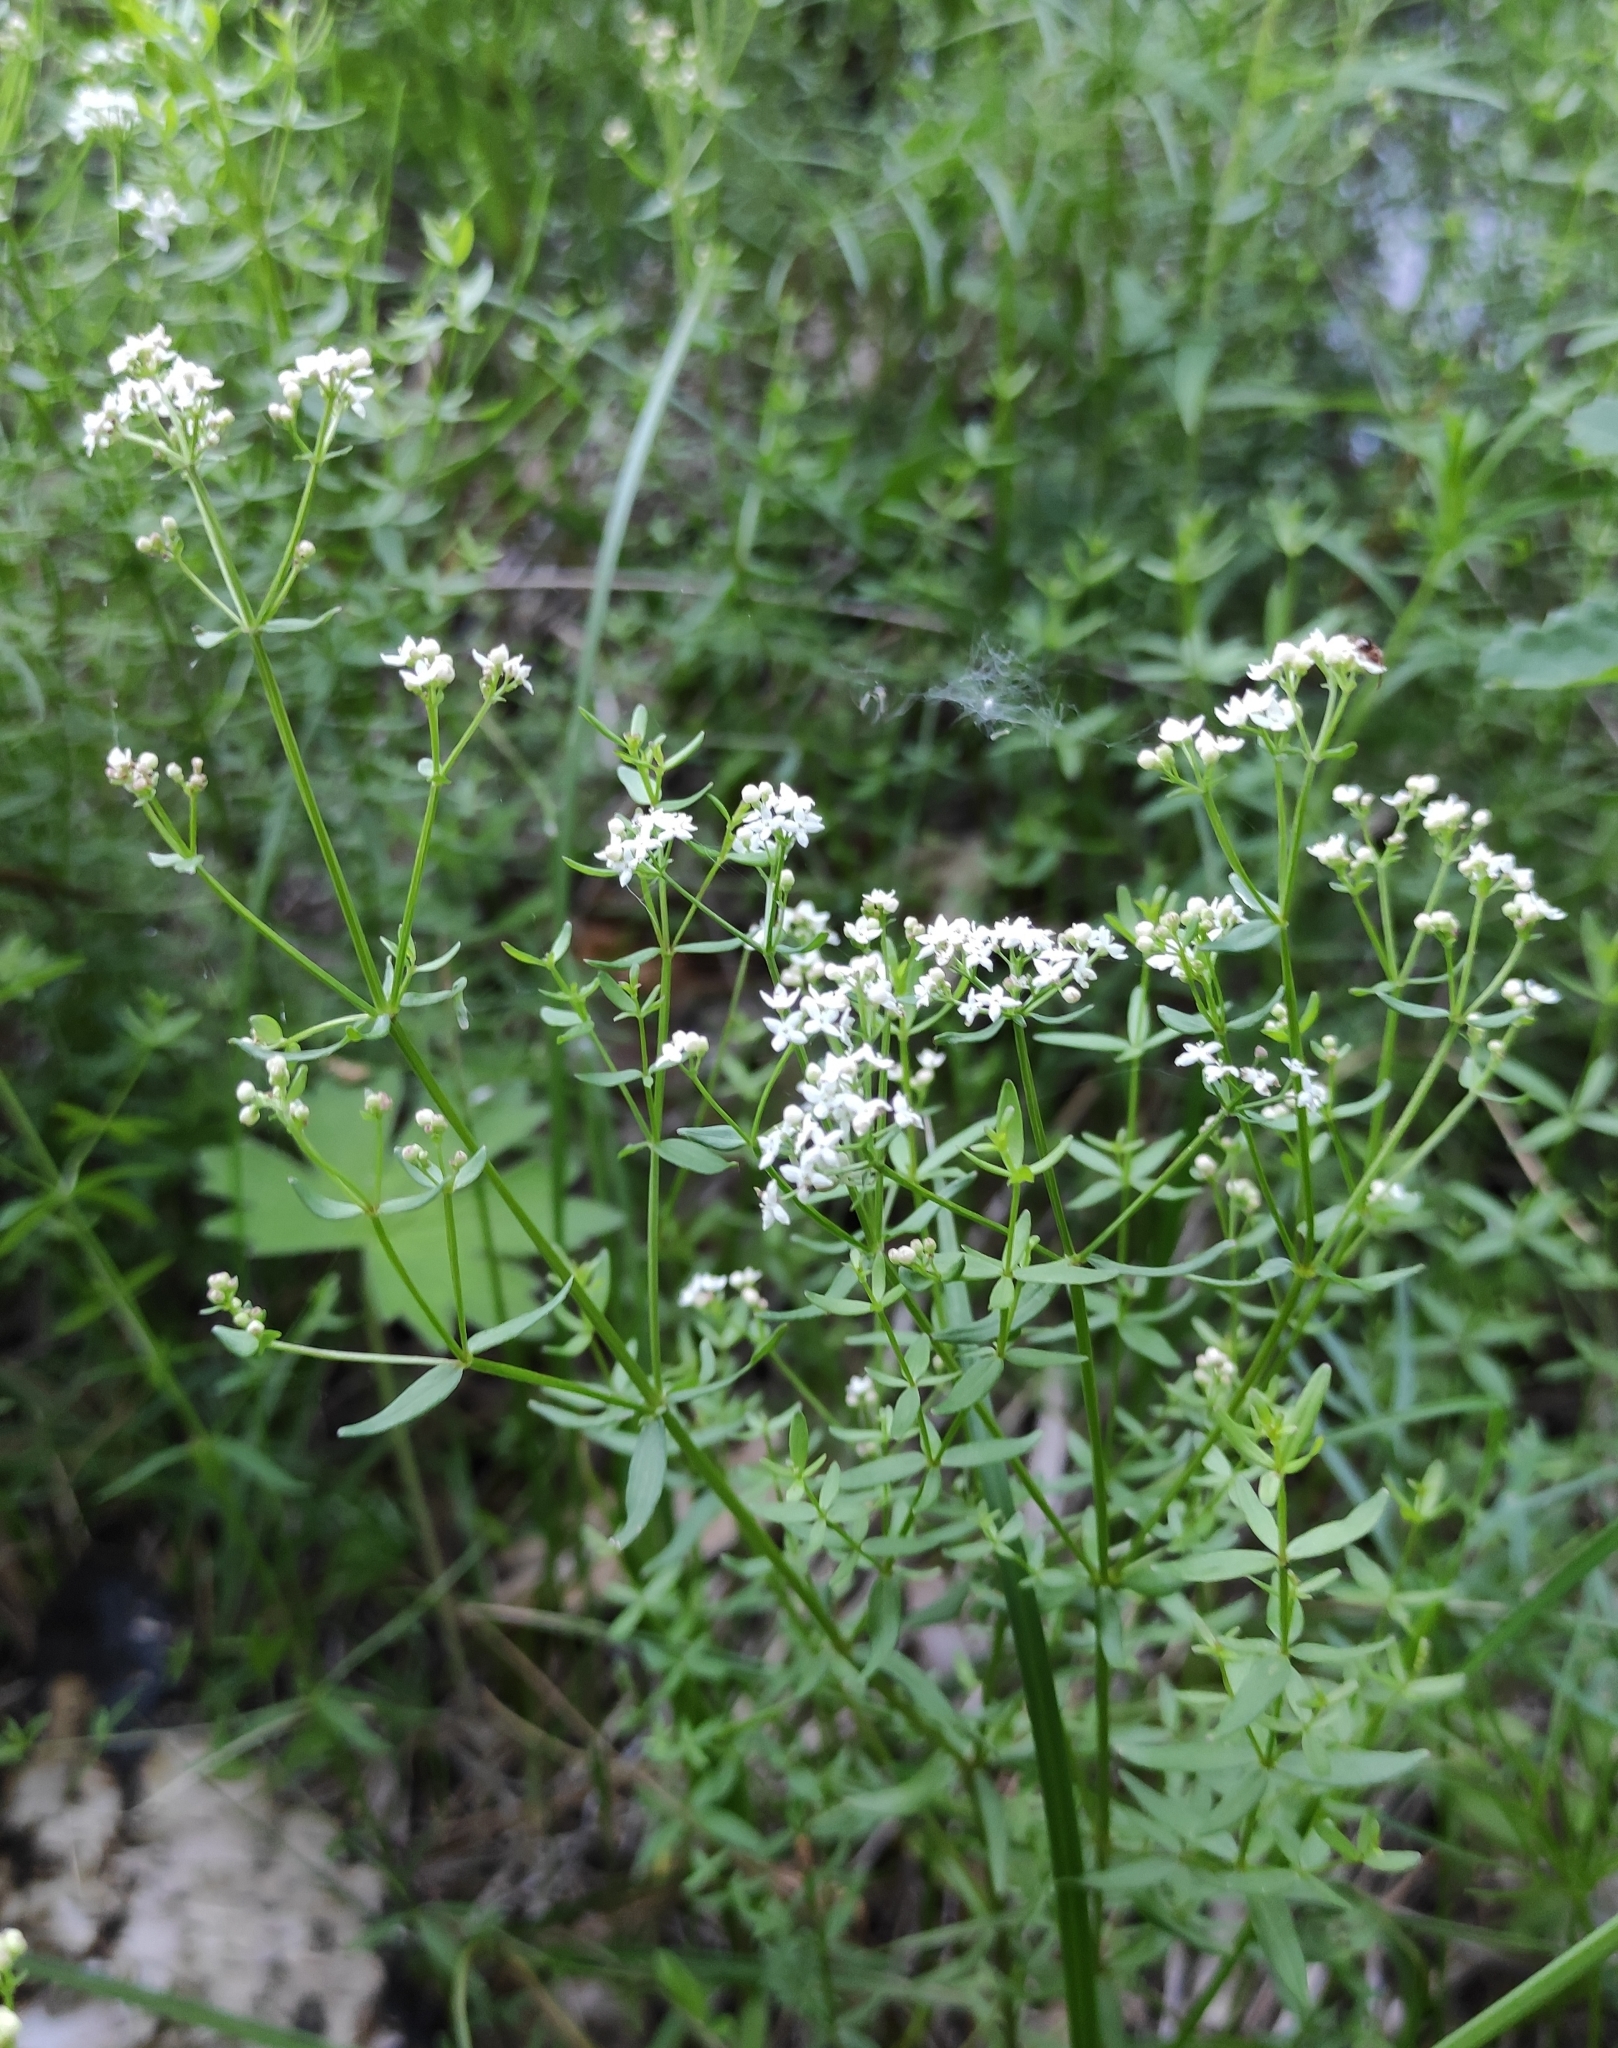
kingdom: Plantae
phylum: Tracheophyta
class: Magnoliopsida
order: Gentianales
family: Rubiaceae
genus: Galium
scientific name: Galium boreale
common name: Northern bedstraw
